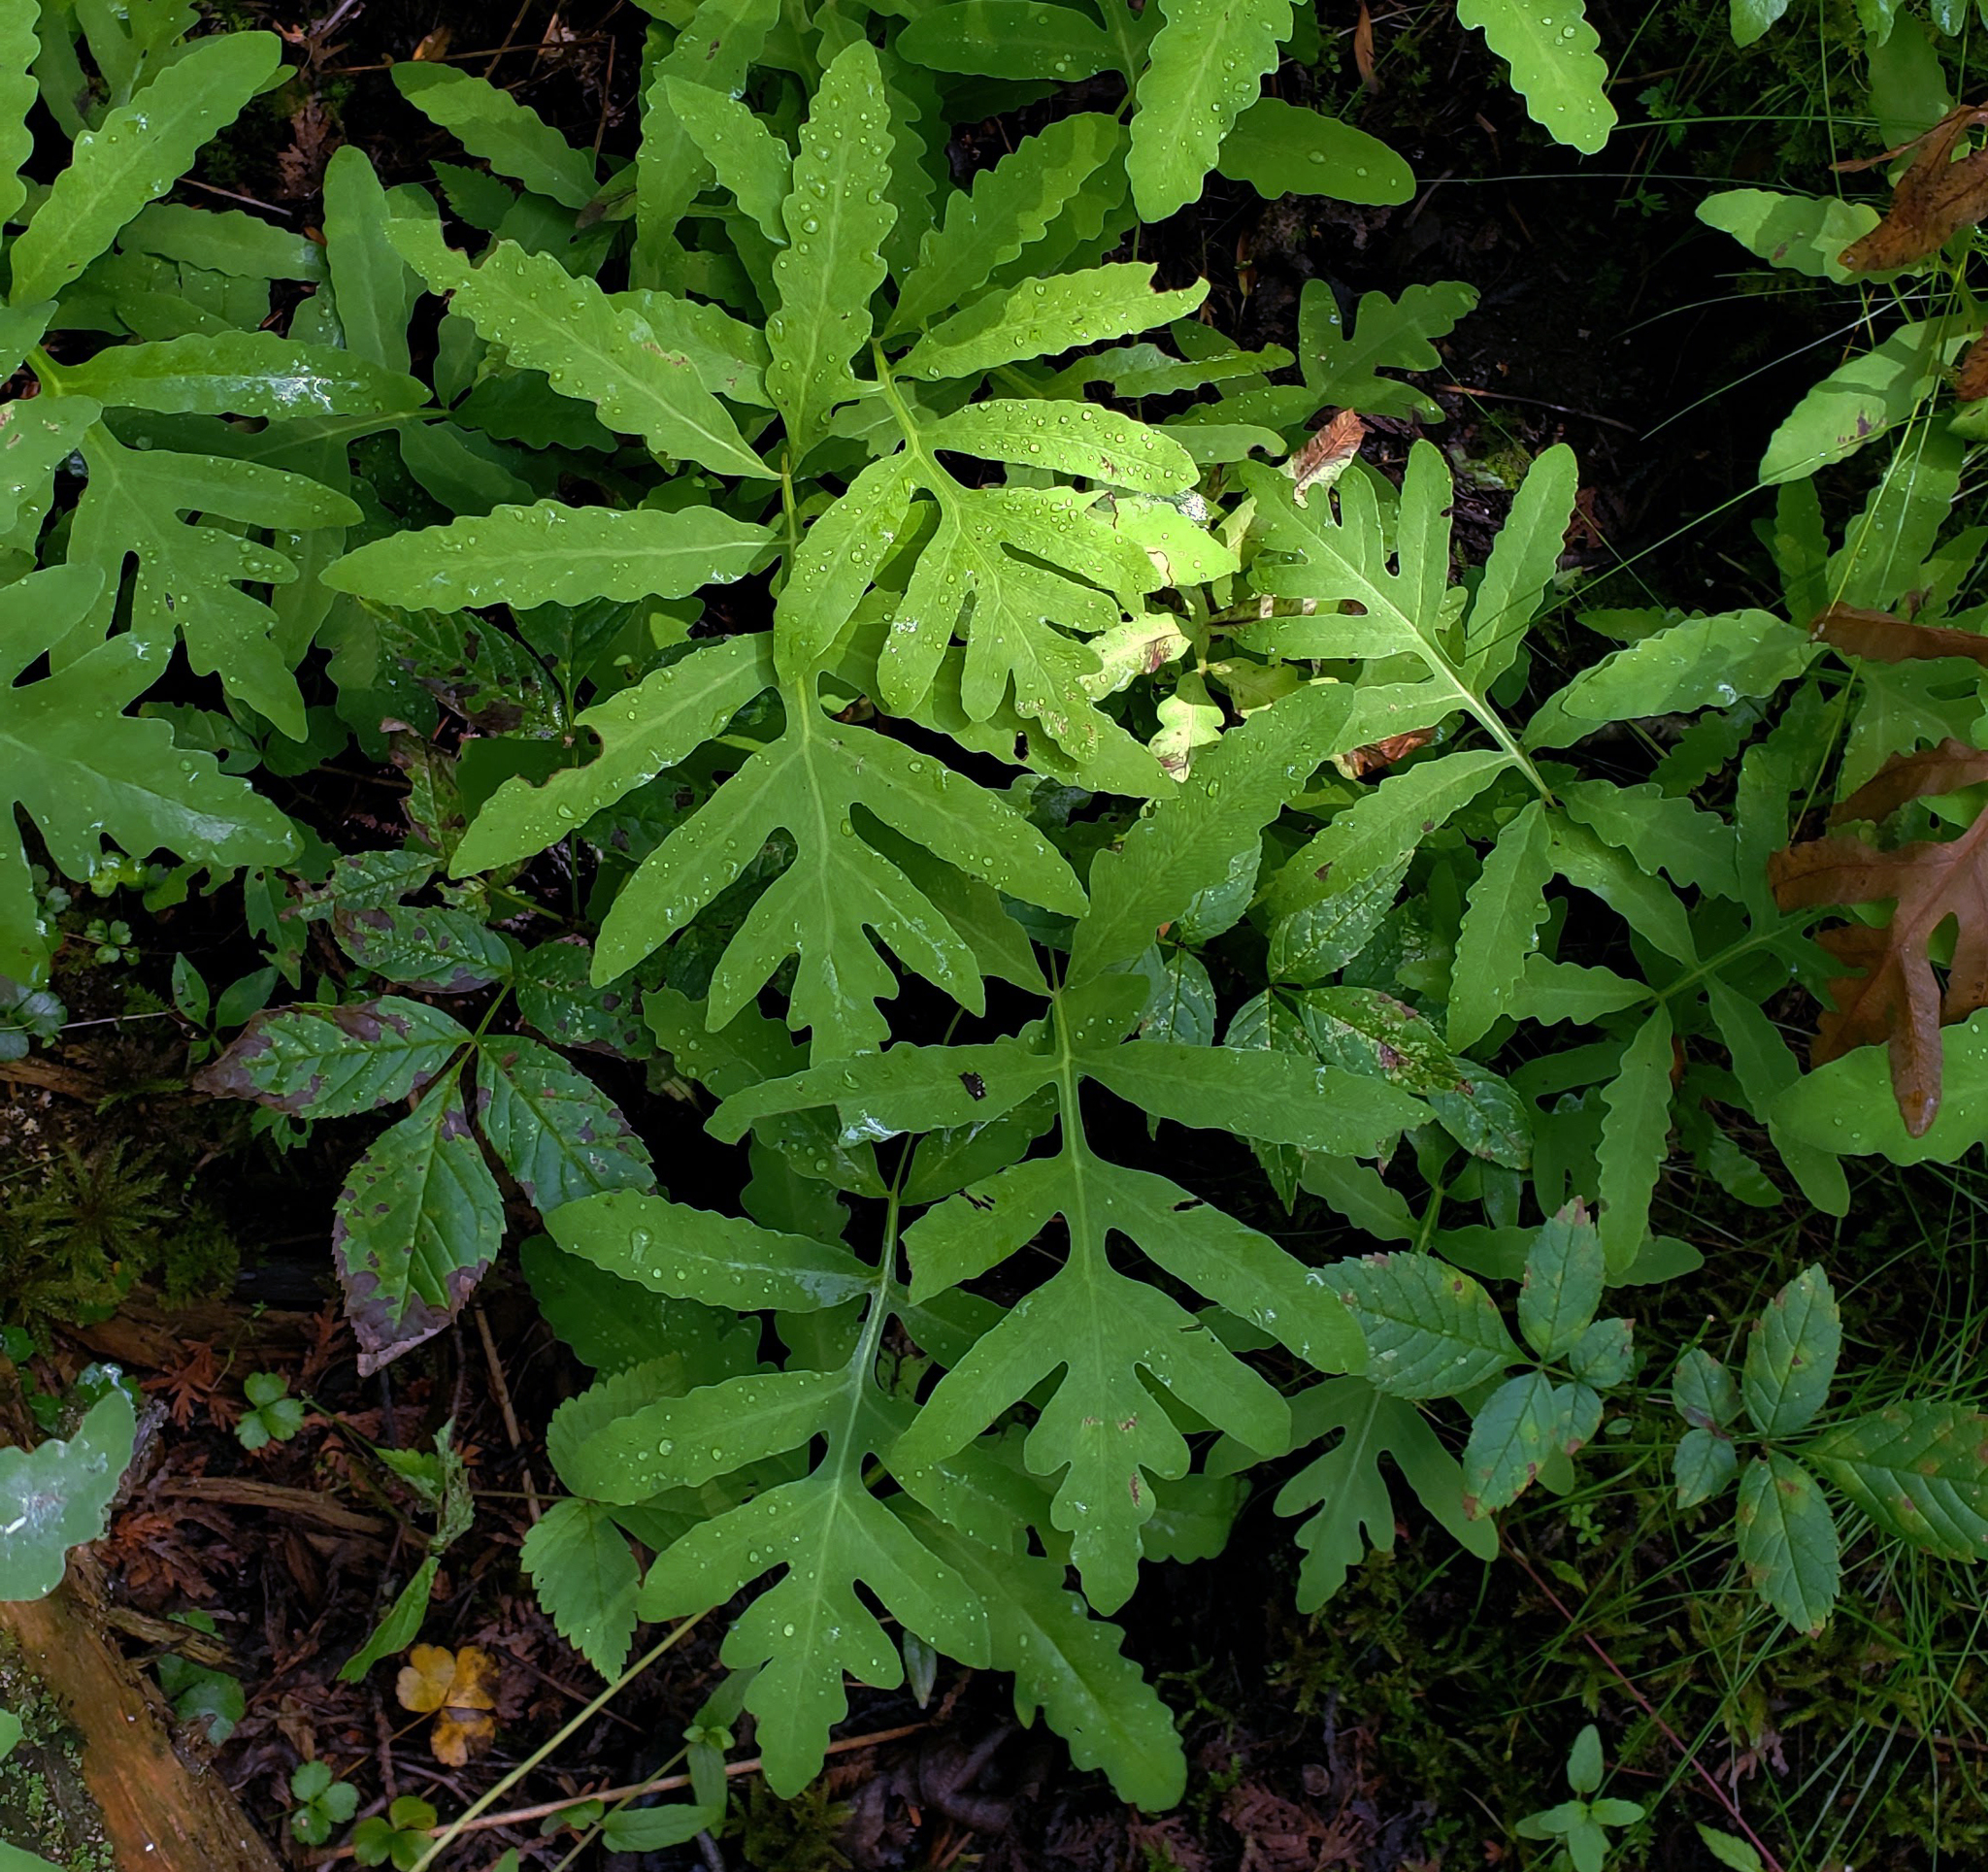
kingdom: Plantae
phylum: Tracheophyta
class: Polypodiopsida
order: Polypodiales
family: Onocleaceae
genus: Onoclea
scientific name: Onoclea sensibilis
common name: Sensitive fern
